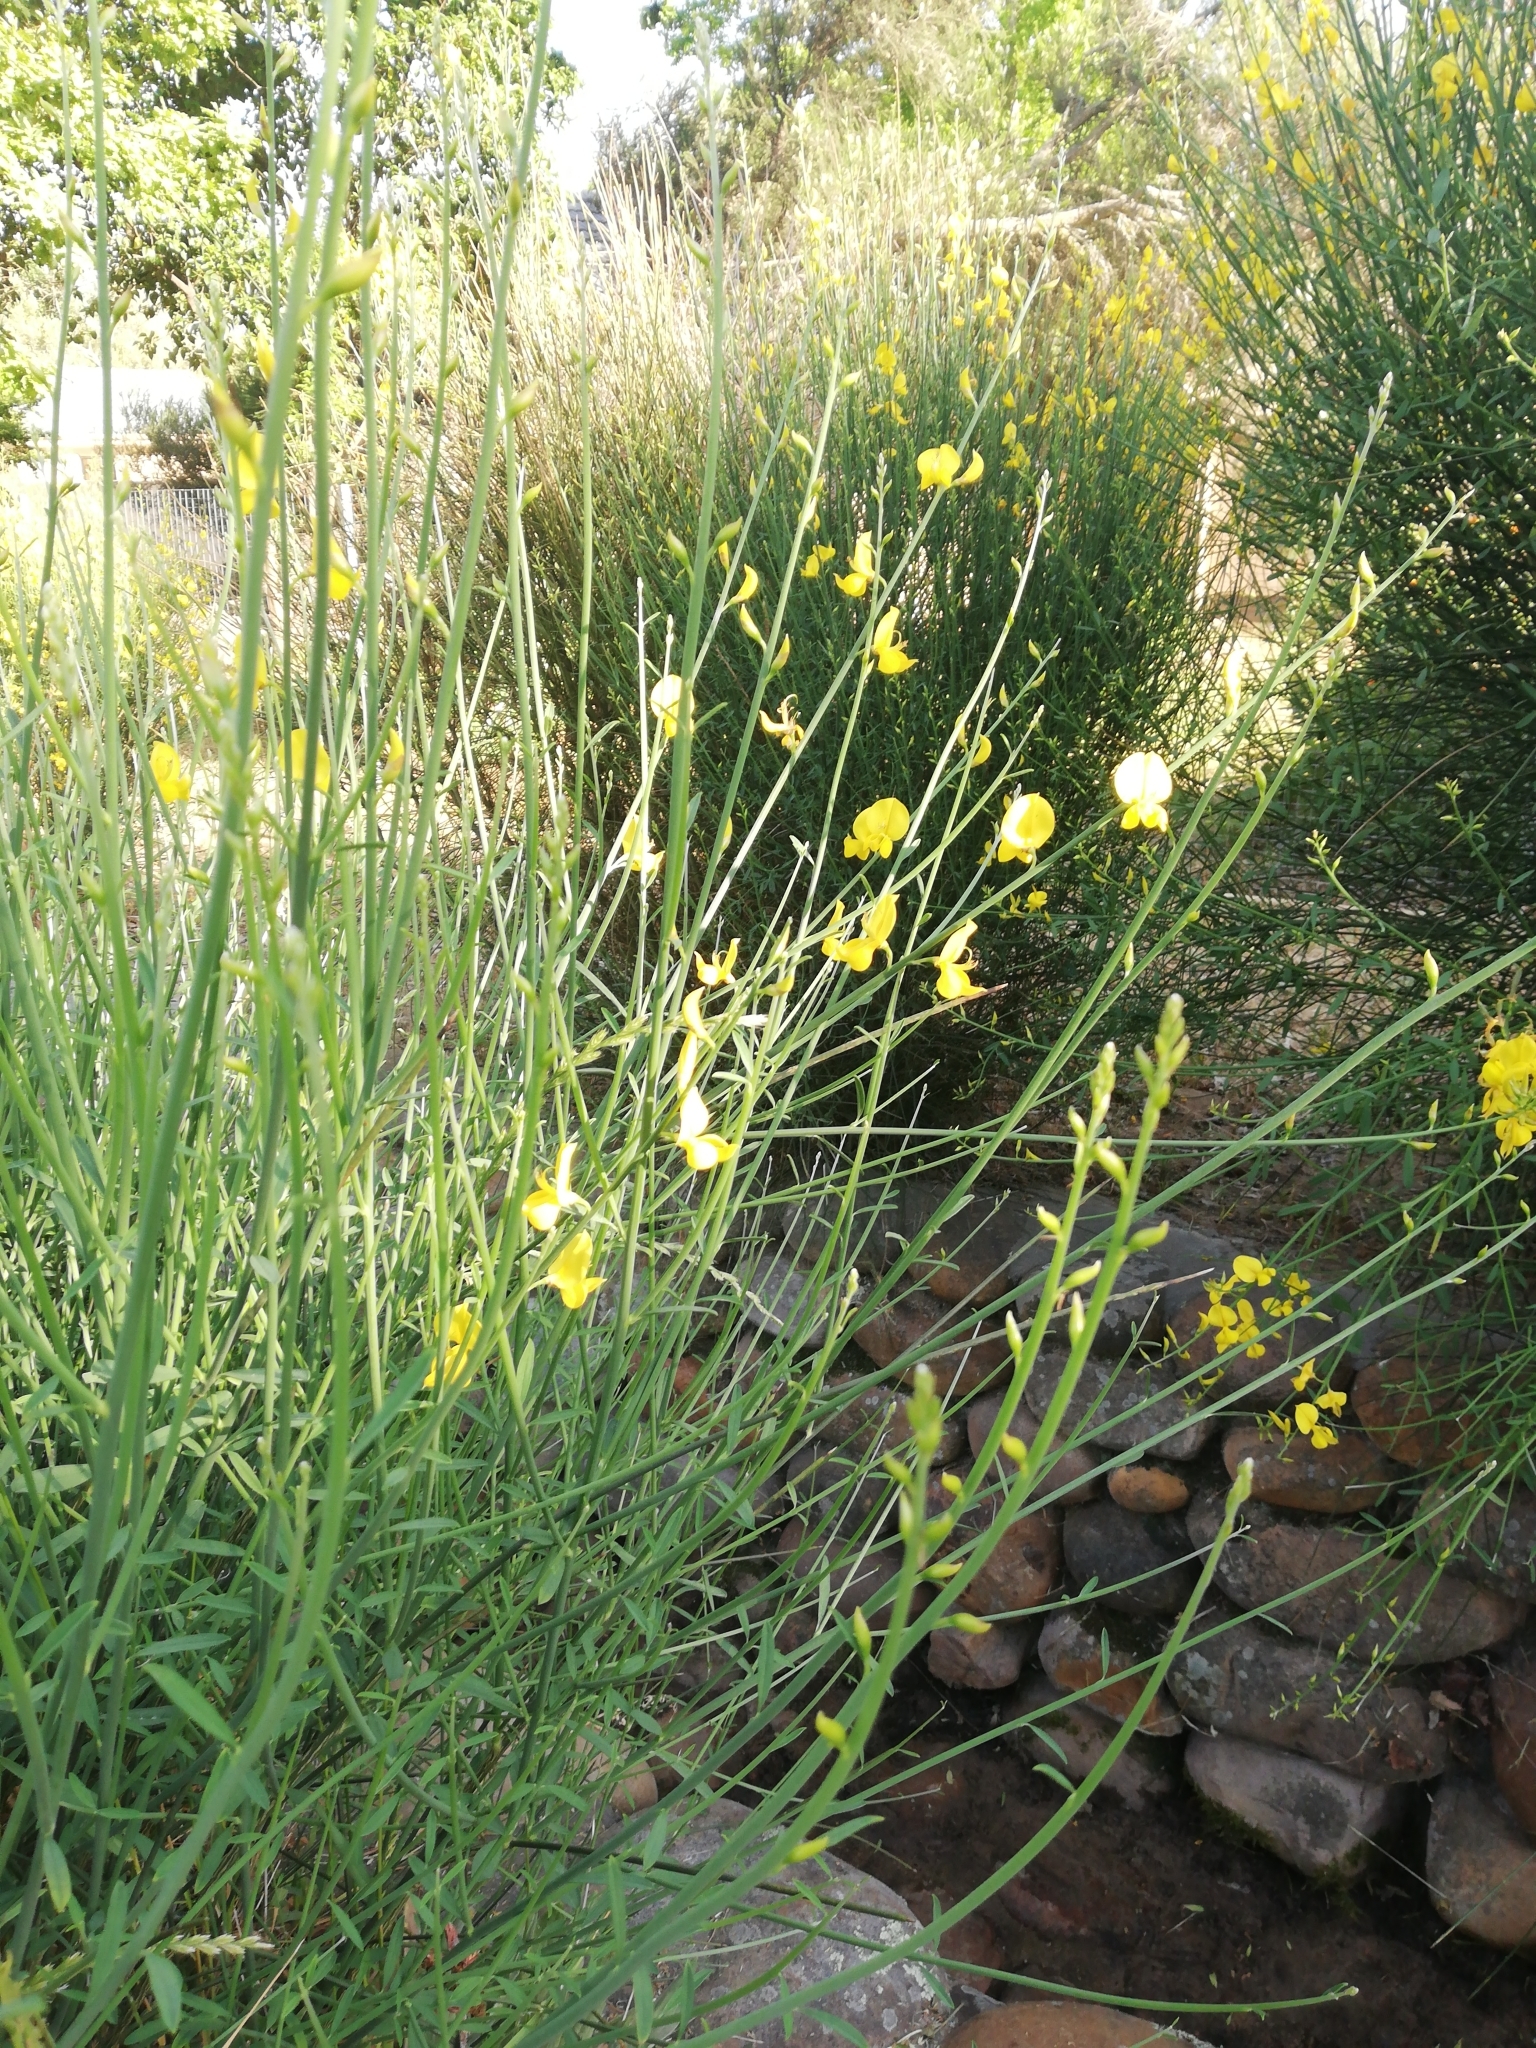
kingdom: Plantae
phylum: Tracheophyta
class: Magnoliopsida
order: Fabales
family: Fabaceae
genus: Spartium
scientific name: Spartium junceum
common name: Spanish broom
